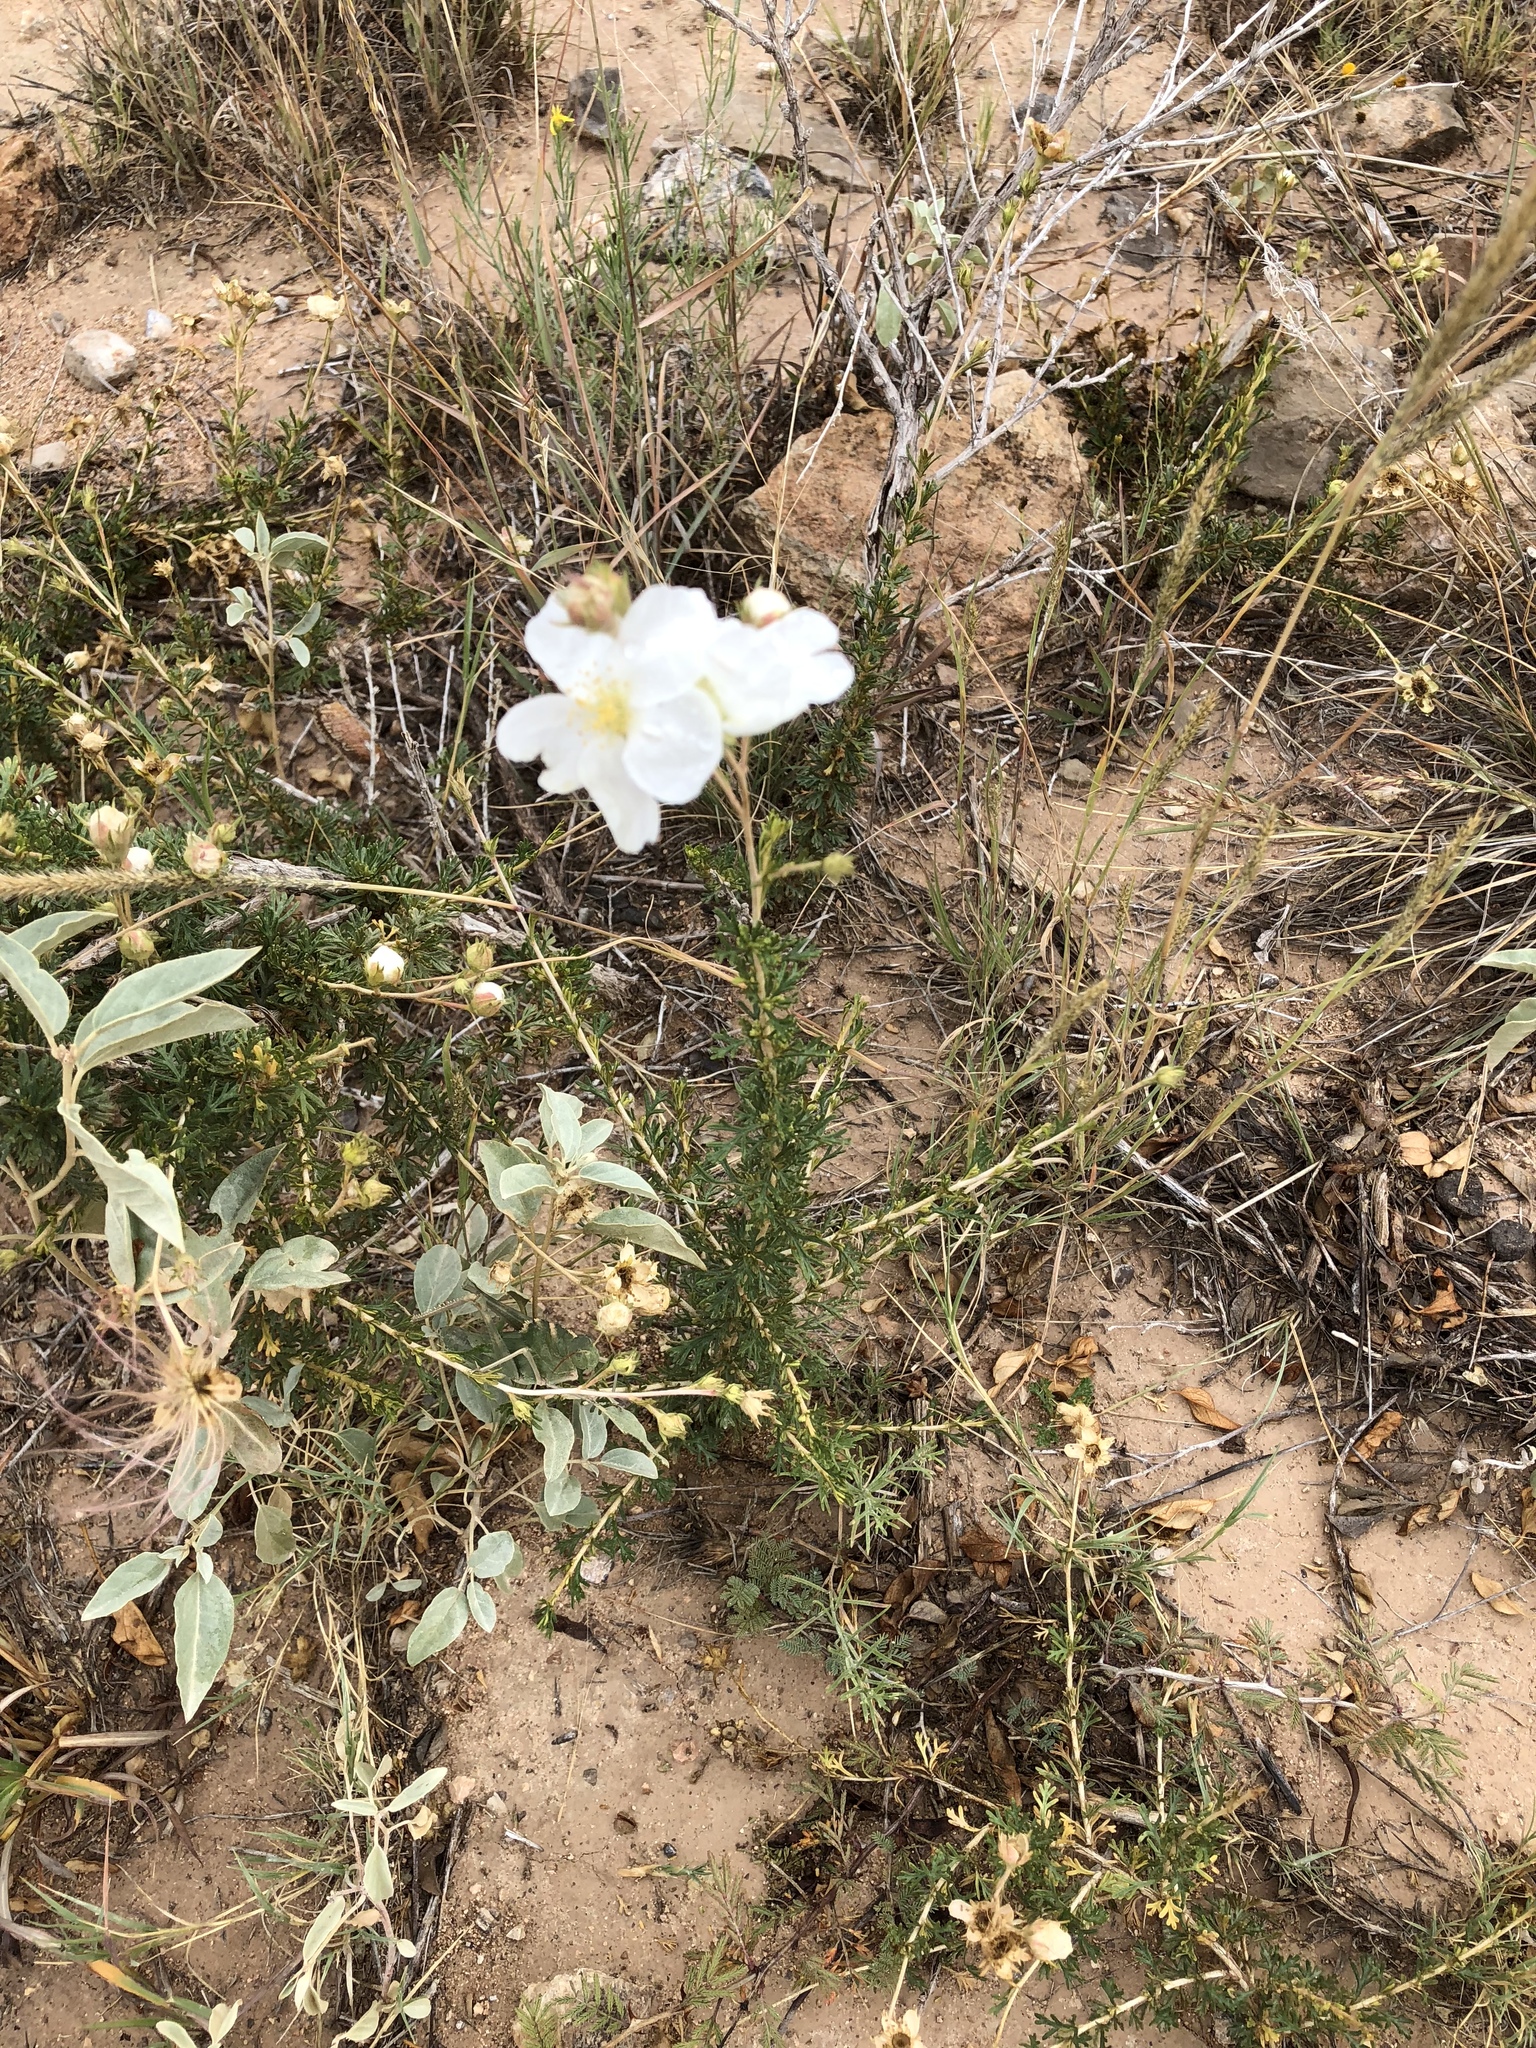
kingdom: Plantae
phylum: Tracheophyta
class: Magnoliopsida
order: Rosales
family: Rosaceae
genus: Fallugia
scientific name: Fallugia paradoxa
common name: Apache-plume
